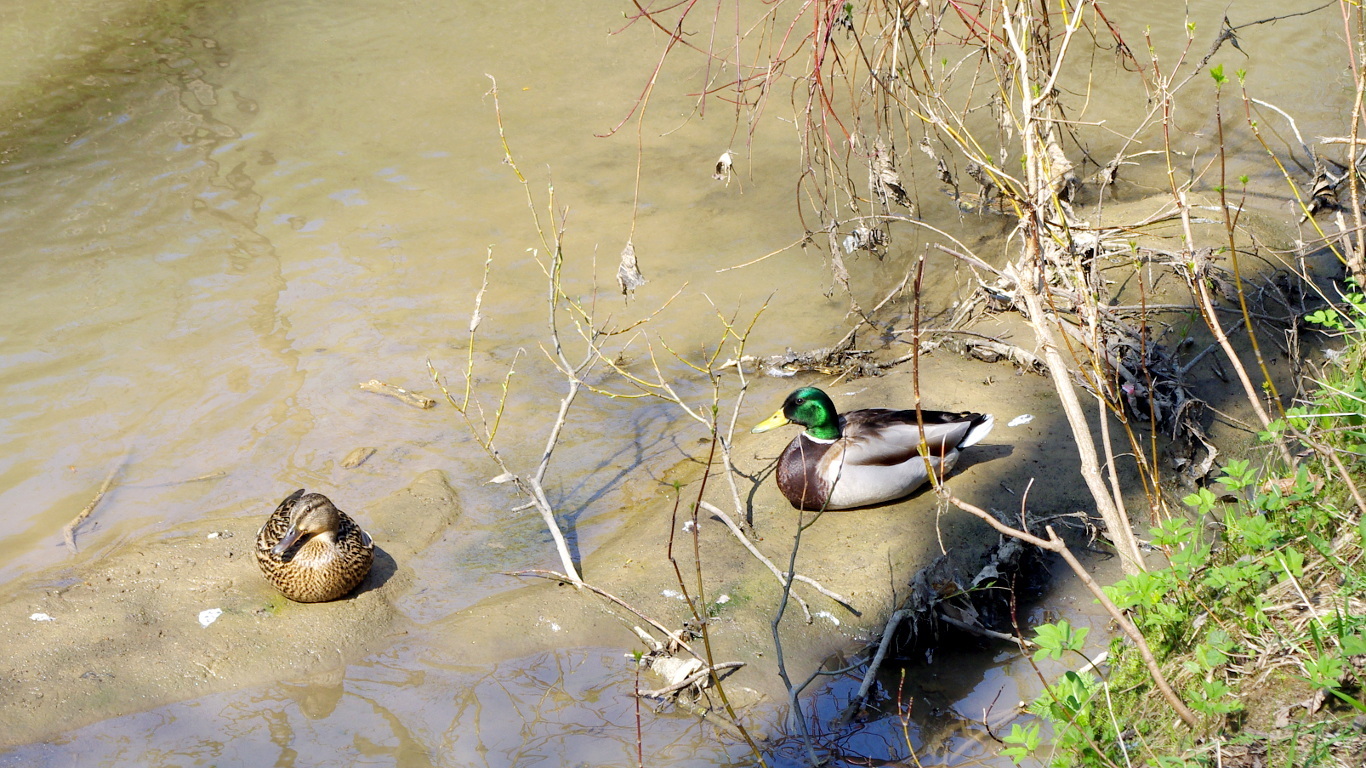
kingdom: Animalia
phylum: Chordata
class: Aves
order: Anseriformes
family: Anatidae
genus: Anas
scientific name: Anas platyrhynchos
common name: Mallard
